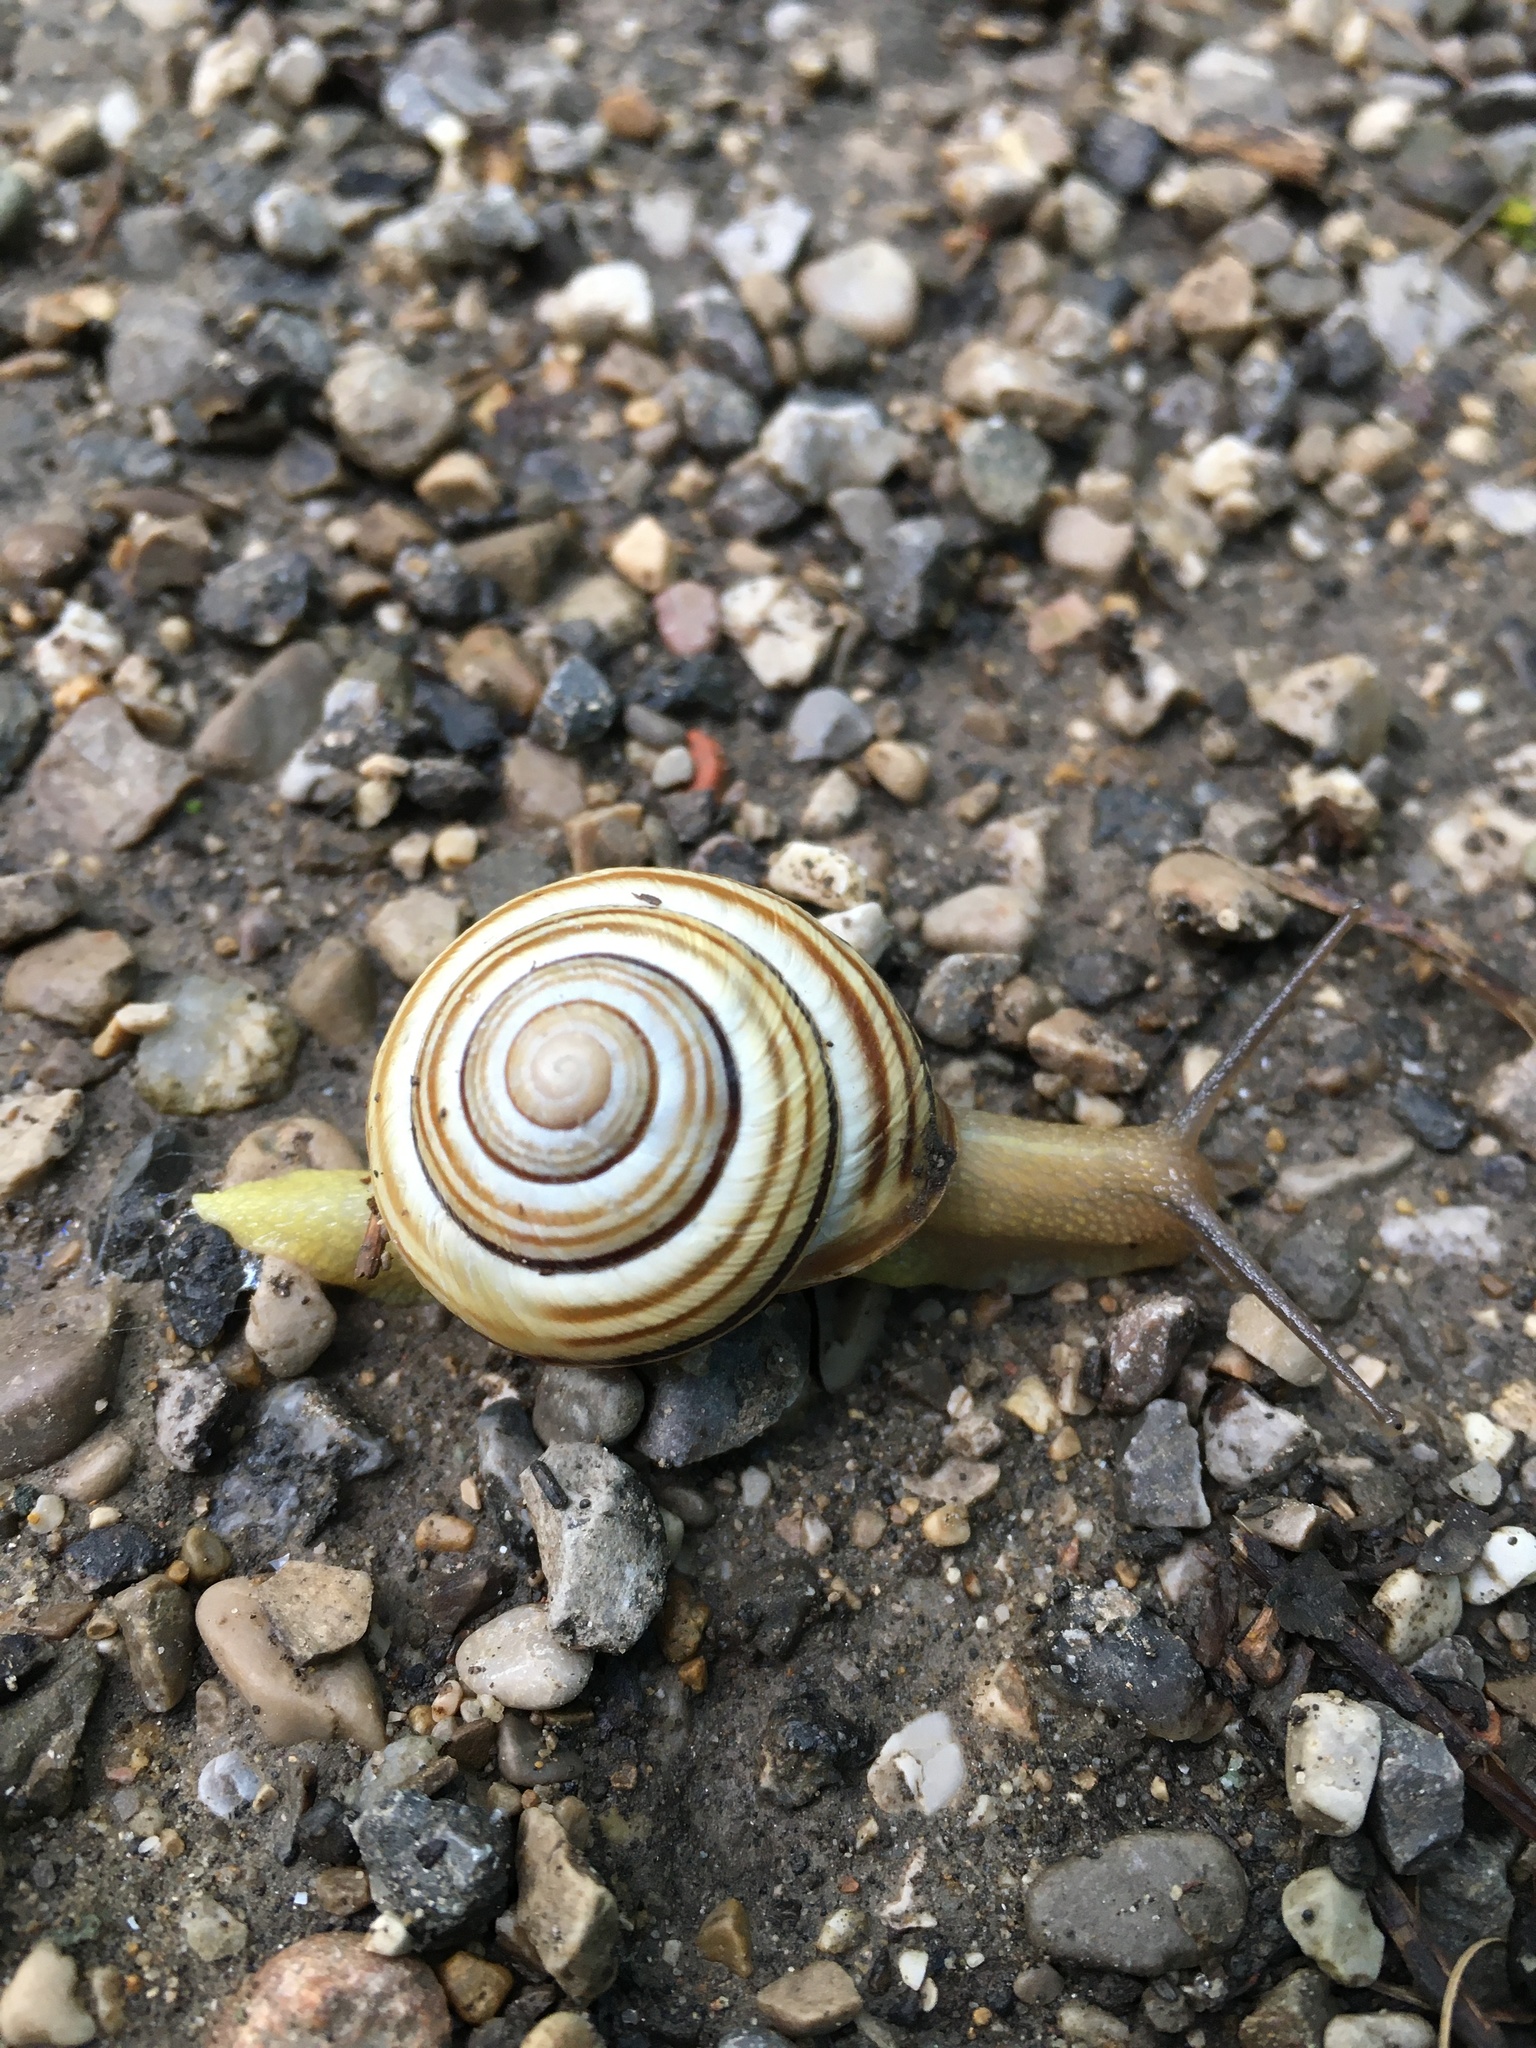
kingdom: Animalia
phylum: Mollusca
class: Gastropoda
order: Stylommatophora
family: Helicidae
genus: Caucasotachea
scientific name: Caucasotachea vindobonensis
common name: European helicid land snail
